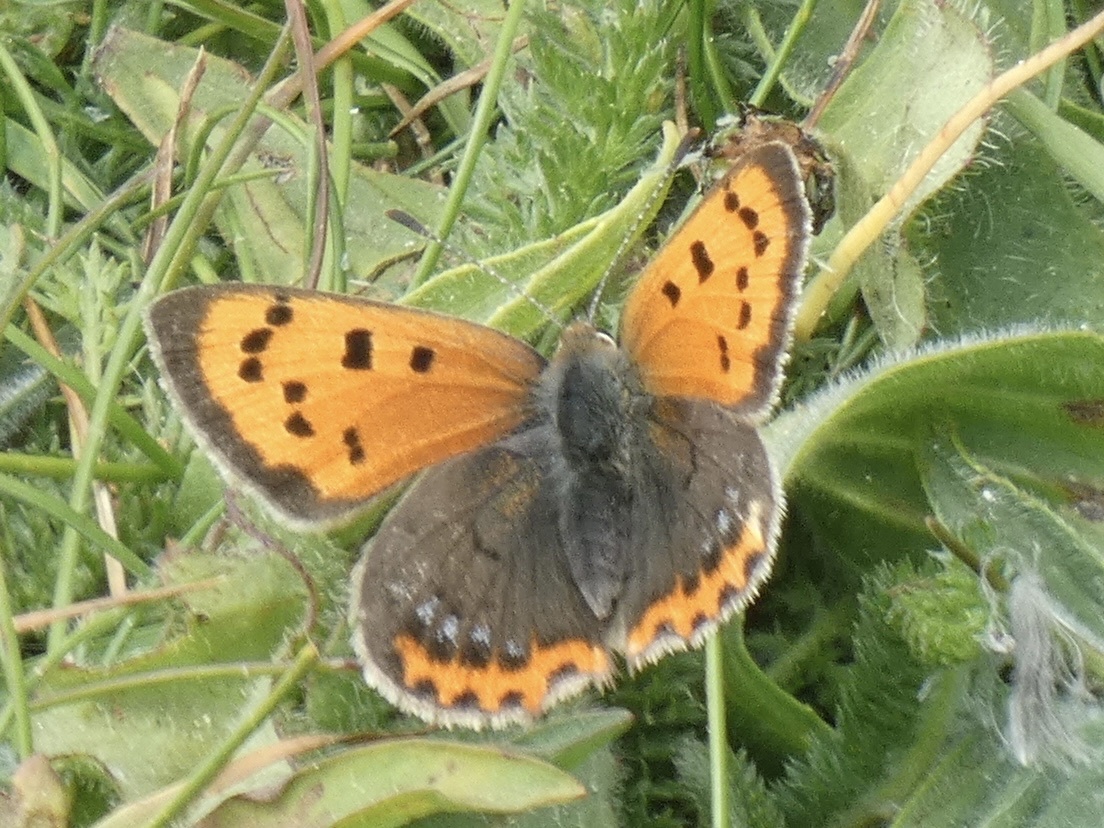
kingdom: Animalia
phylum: Arthropoda
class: Insecta
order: Lepidoptera
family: Lycaenidae
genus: Lycaena
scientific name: Lycaena phlaeas
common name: Small copper
